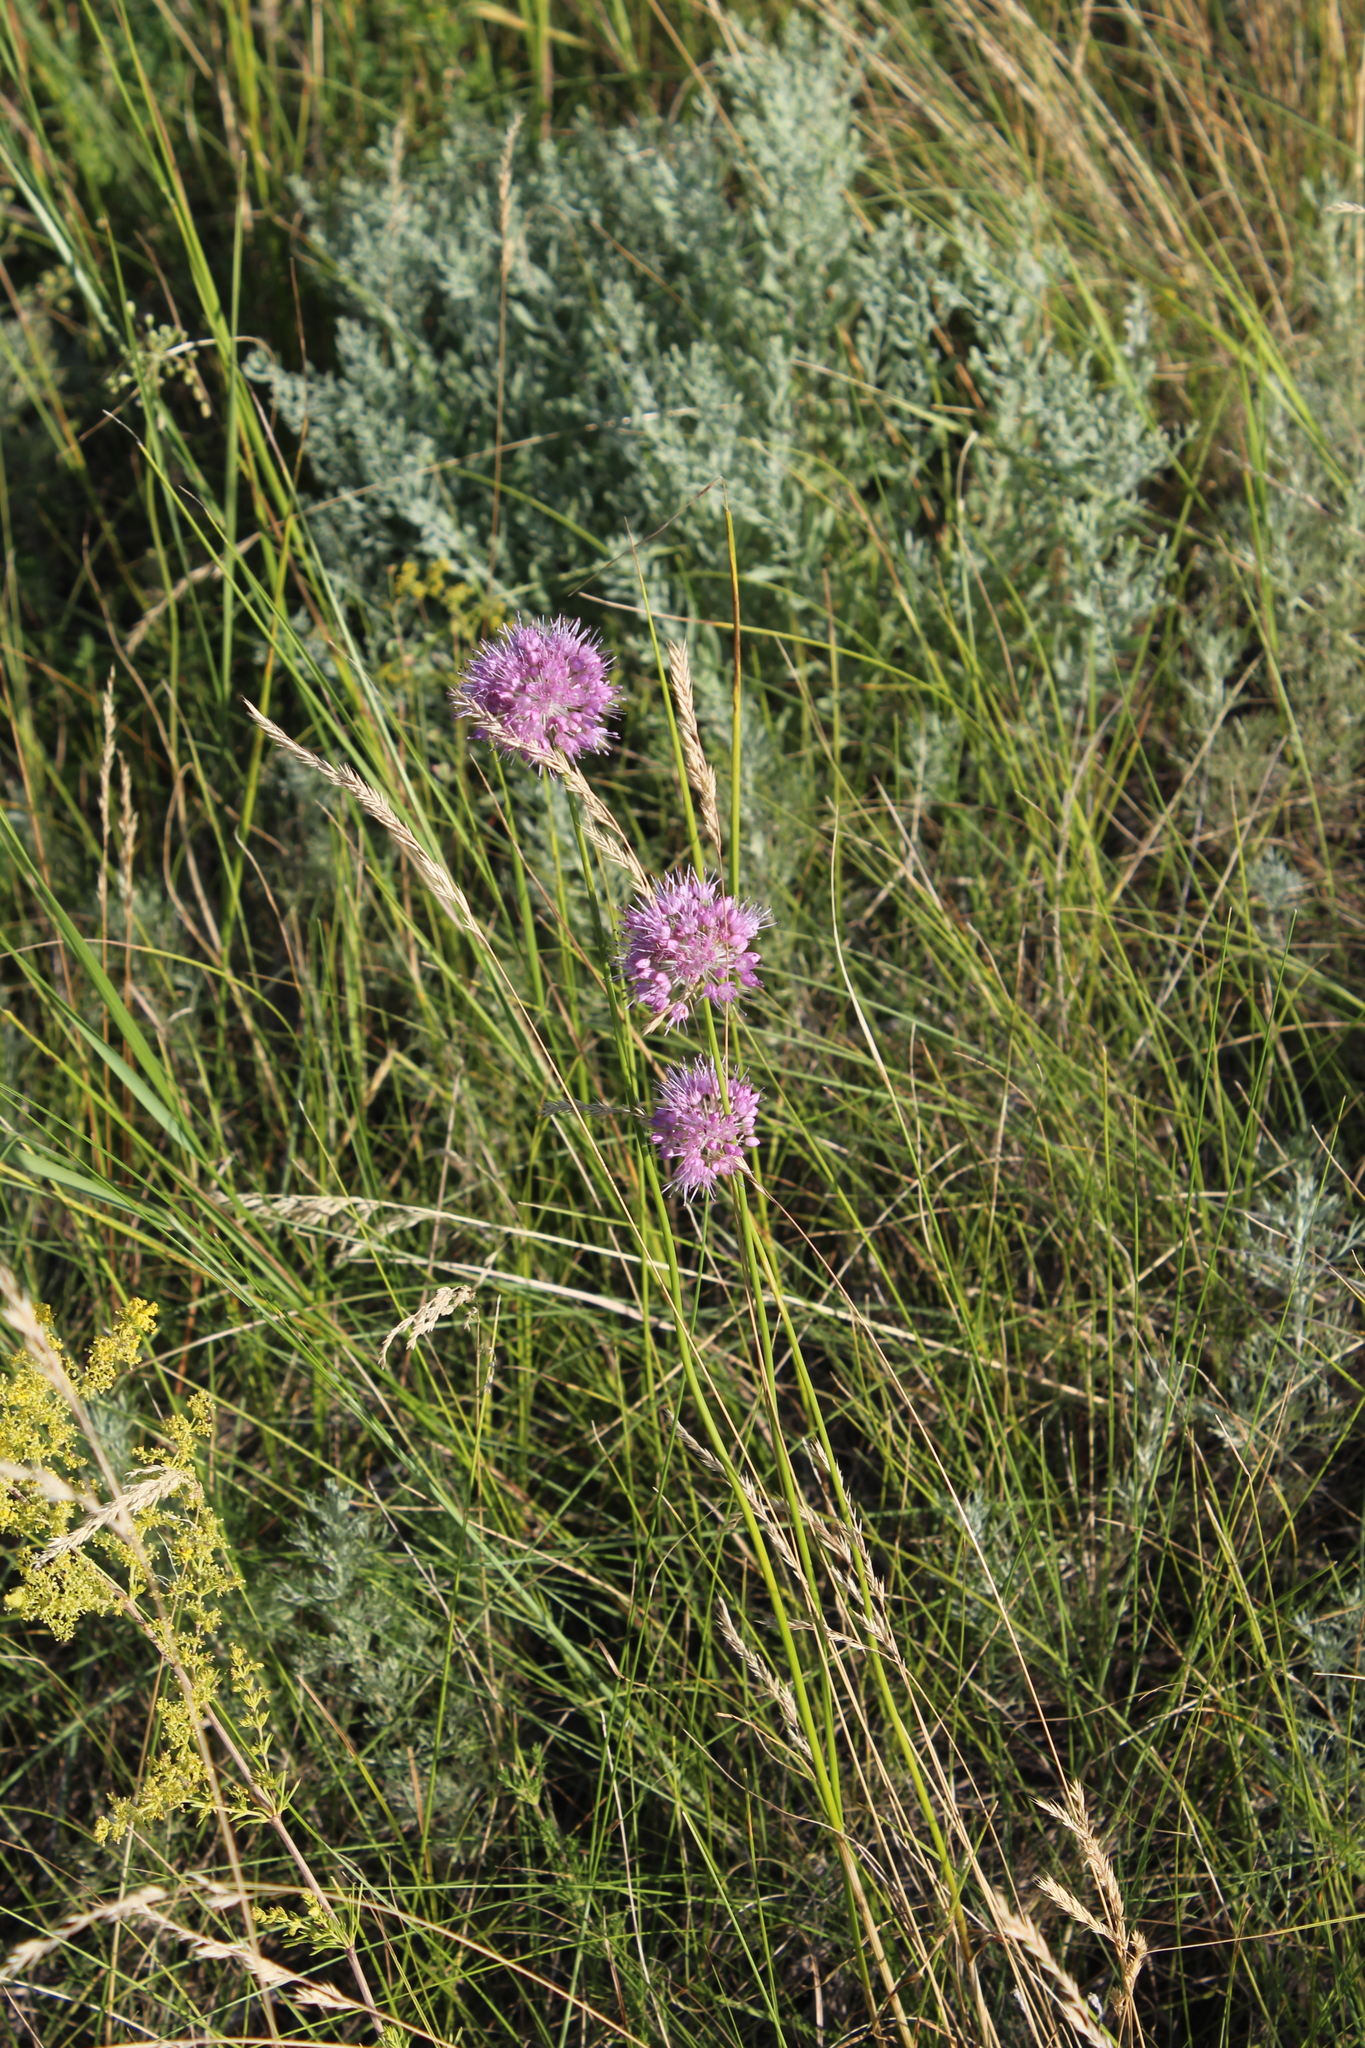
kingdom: Plantae
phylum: Tracheophyta
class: Liliopsida
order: Asparagales
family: Amaryllidaceae
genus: Allium
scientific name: Allium lineare
